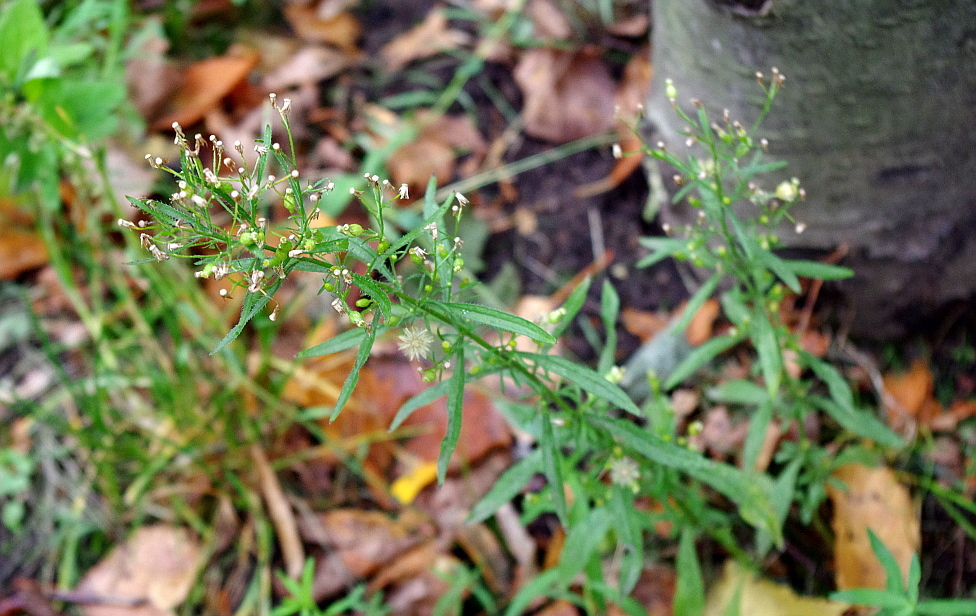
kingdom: Plantae
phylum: Tracheophyta
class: Magnoliopsida
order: Asterales
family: Asteraceae
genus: Erigeron
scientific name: Erigeron canadensis
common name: Canadian fleabane
